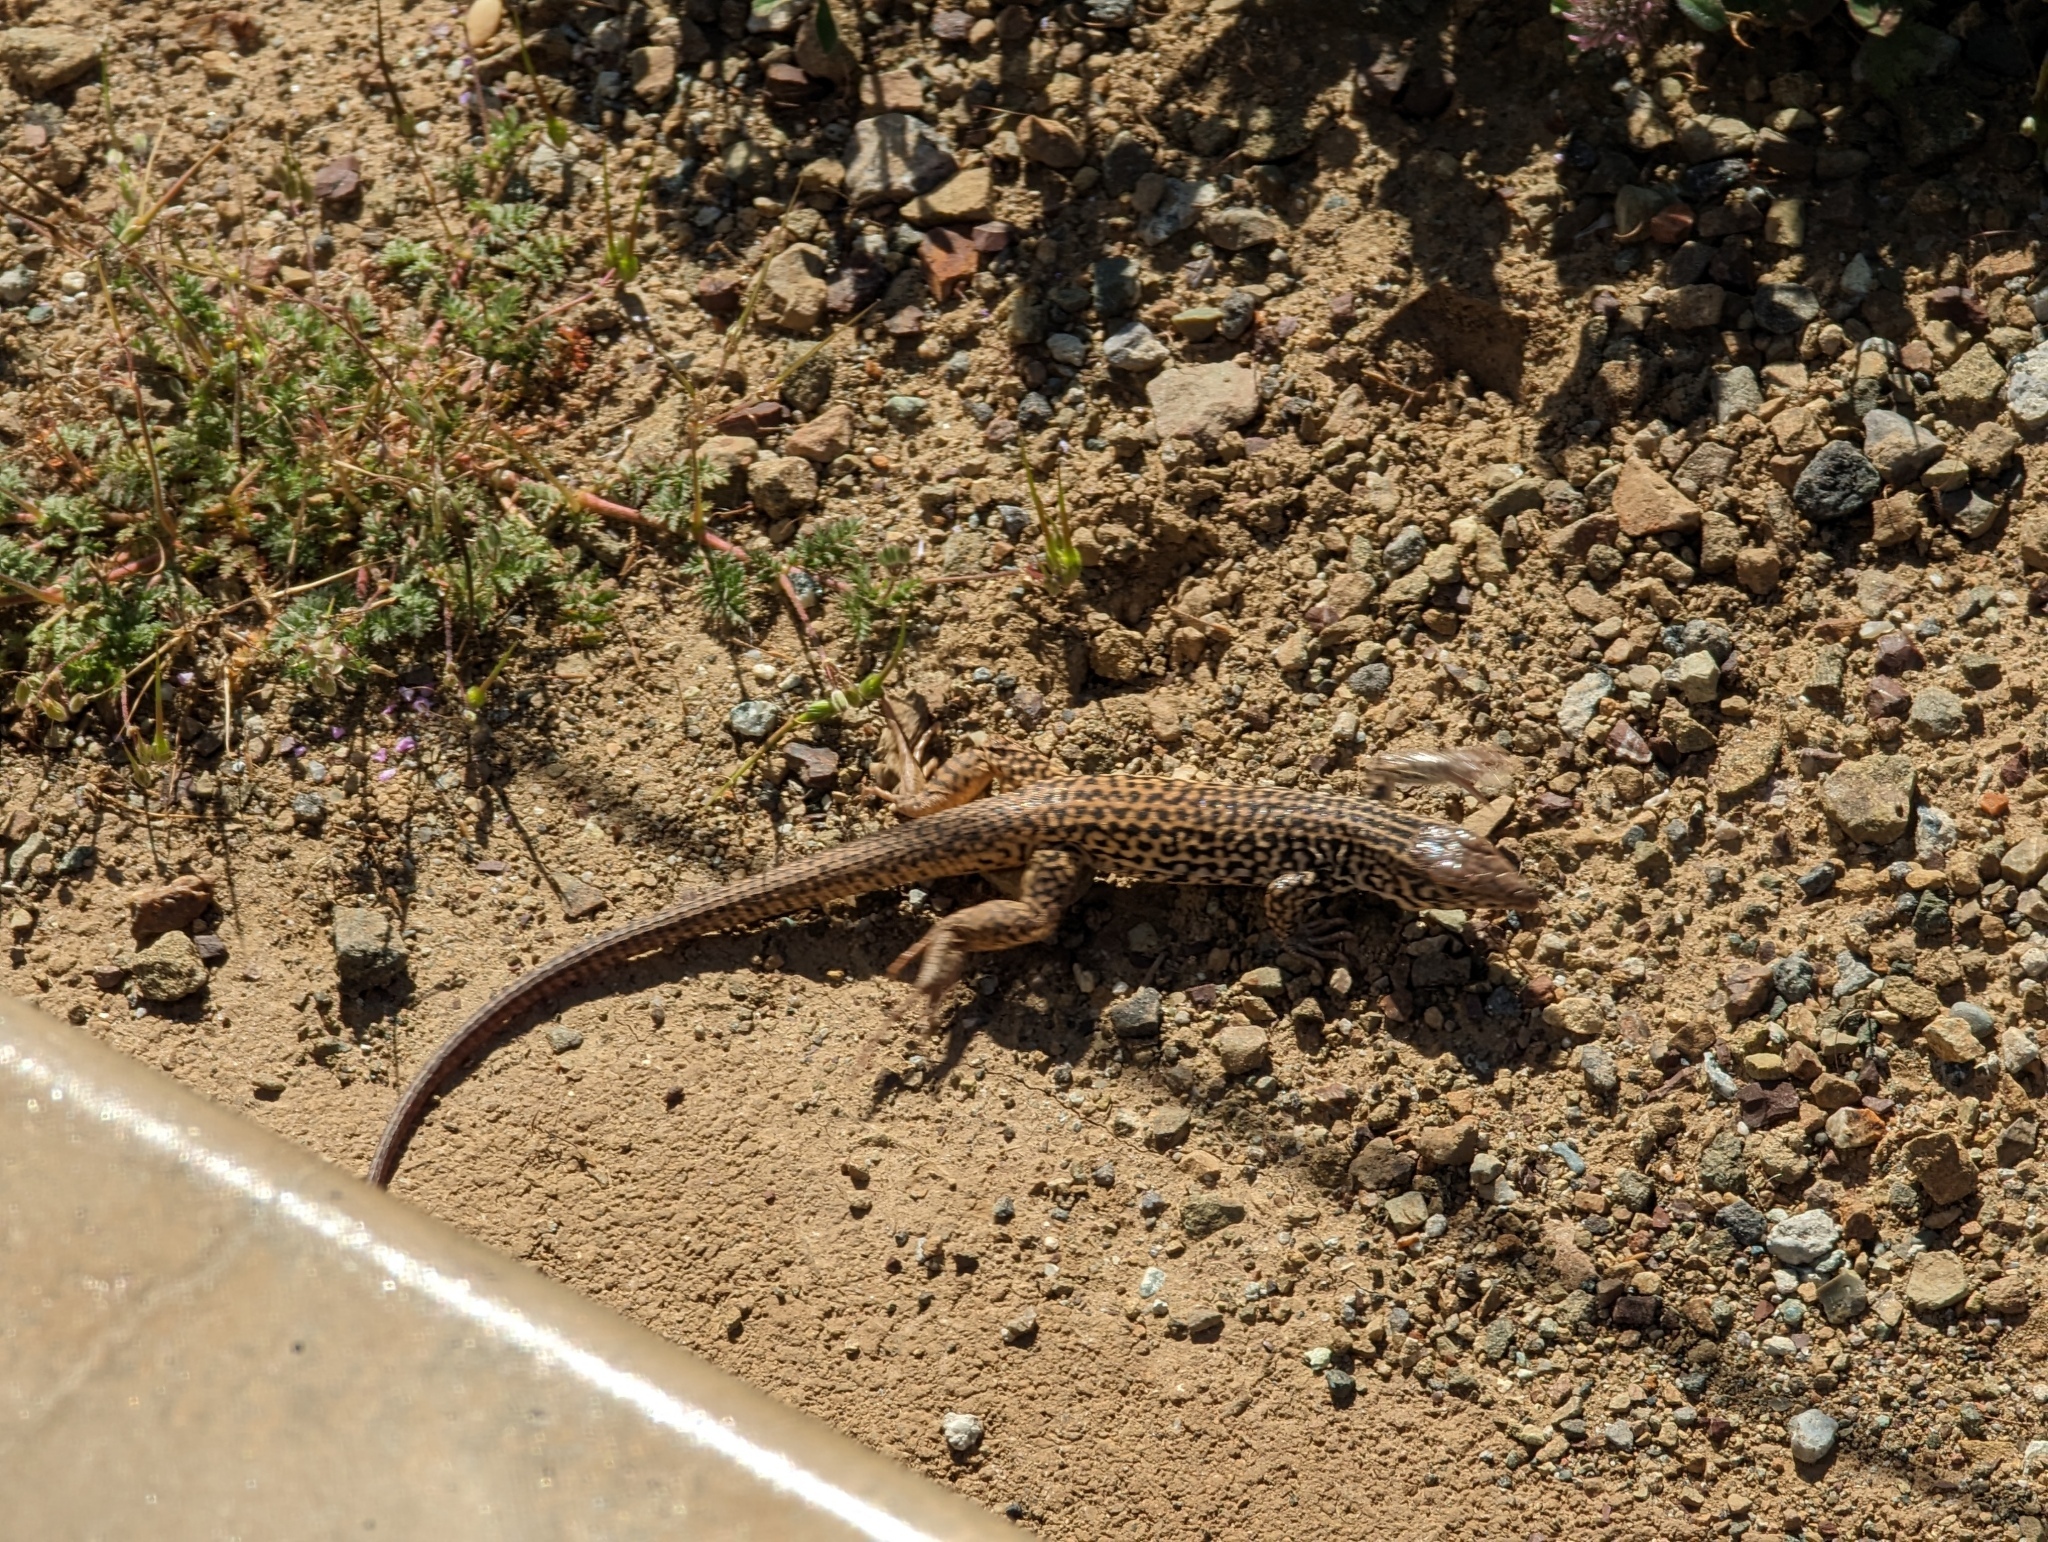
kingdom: Animalia
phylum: Chordata
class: Squamata
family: Teiidae
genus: Aspidoscelis
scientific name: Aspidoscelis tigris
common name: Tiger whiptail
